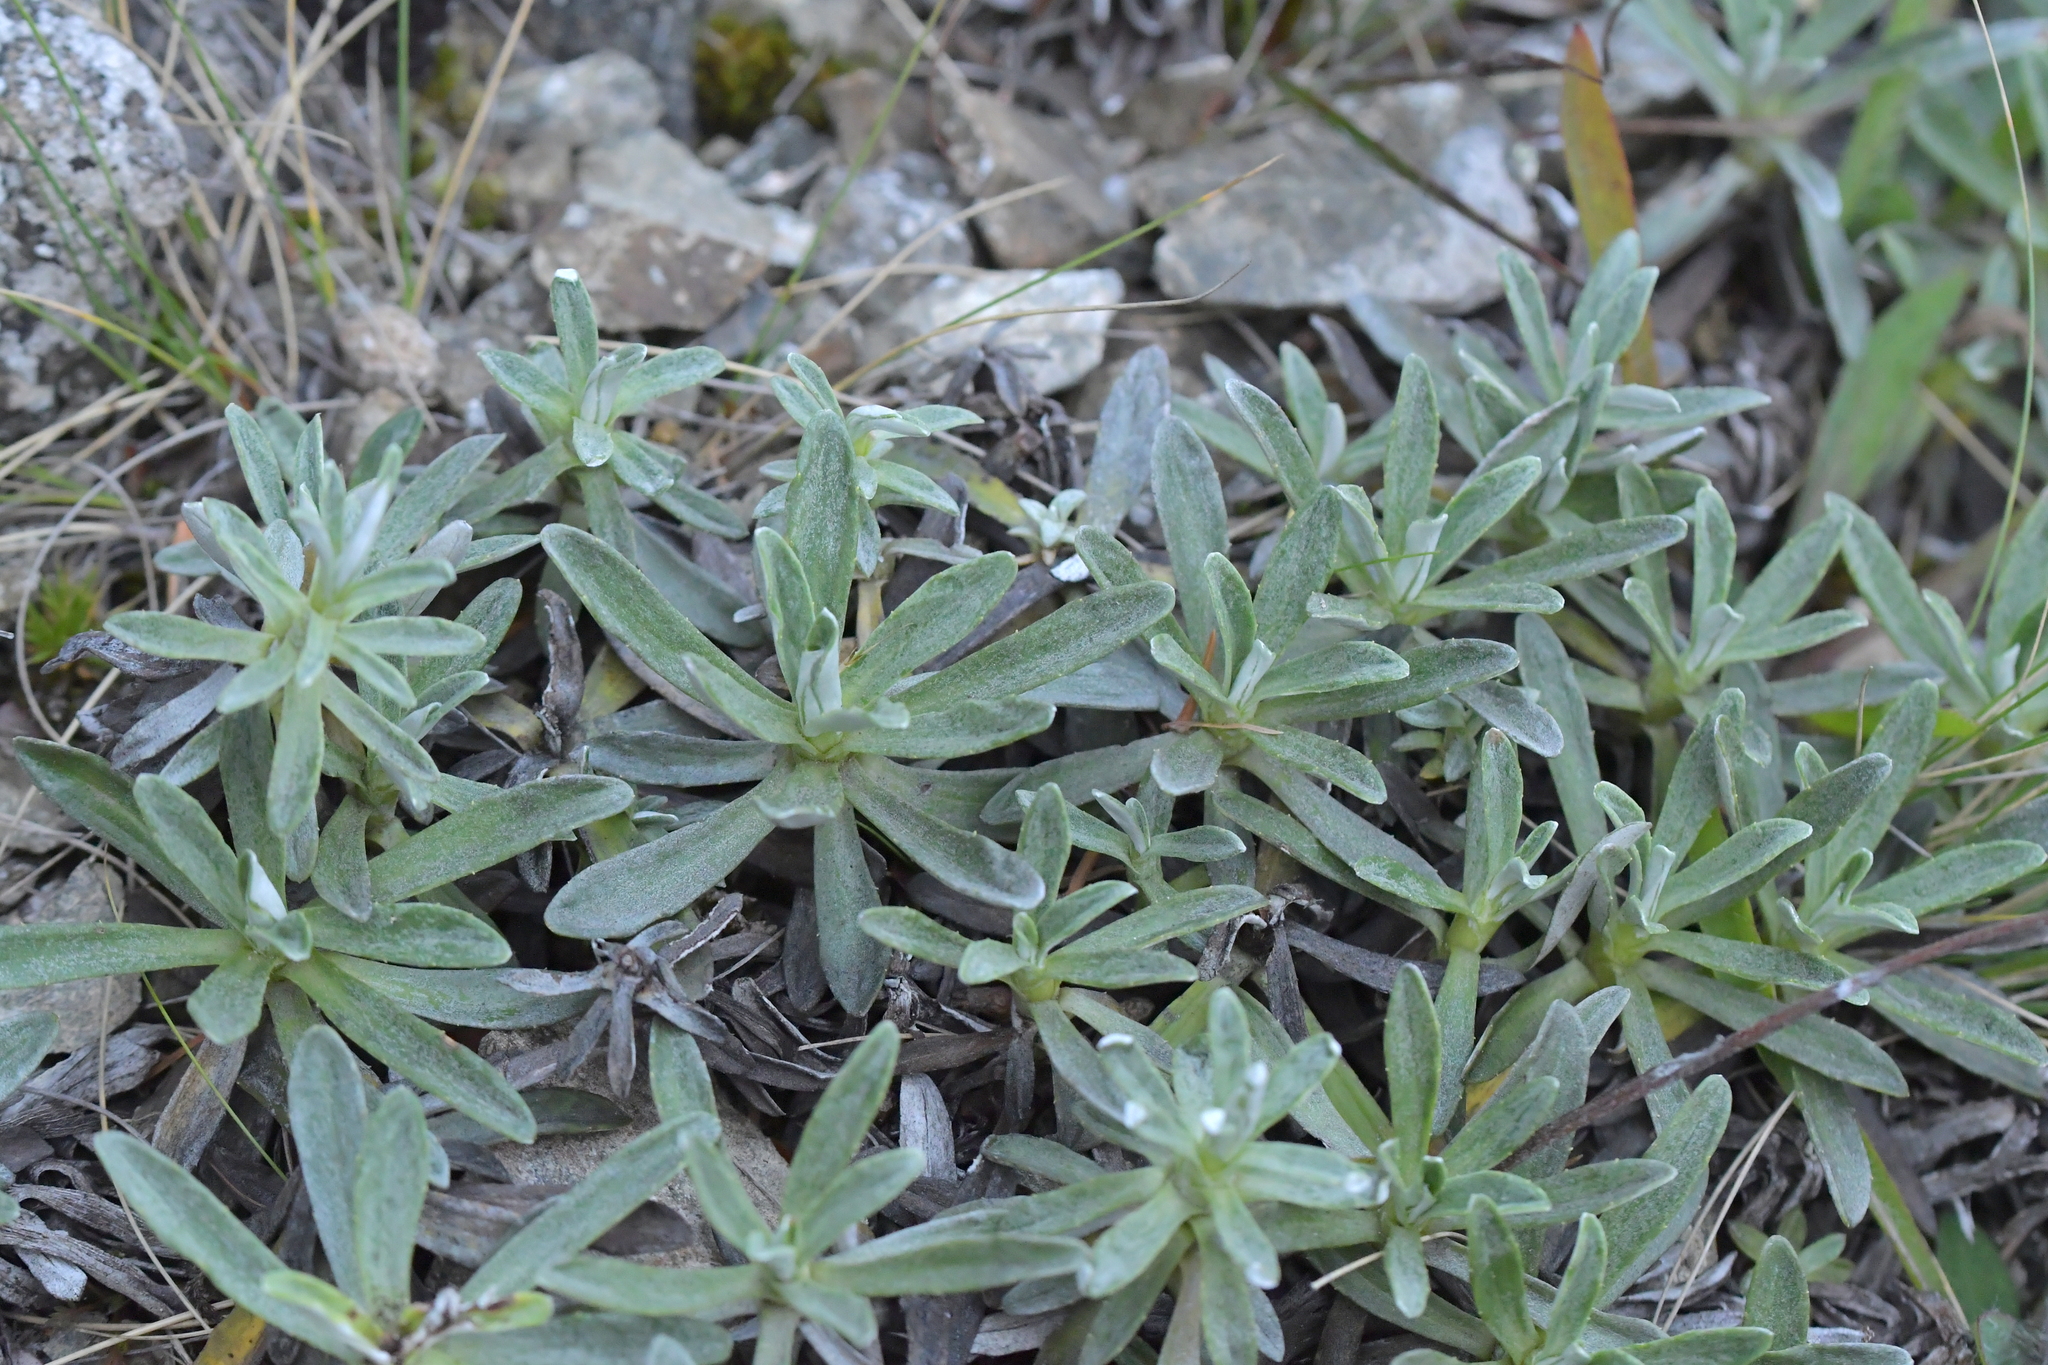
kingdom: Plantae
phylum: Tracheophyta
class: Magnoliopsida
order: Asterales
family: Asteraceae
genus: Celmisia
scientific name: Celmisia angustifolia
